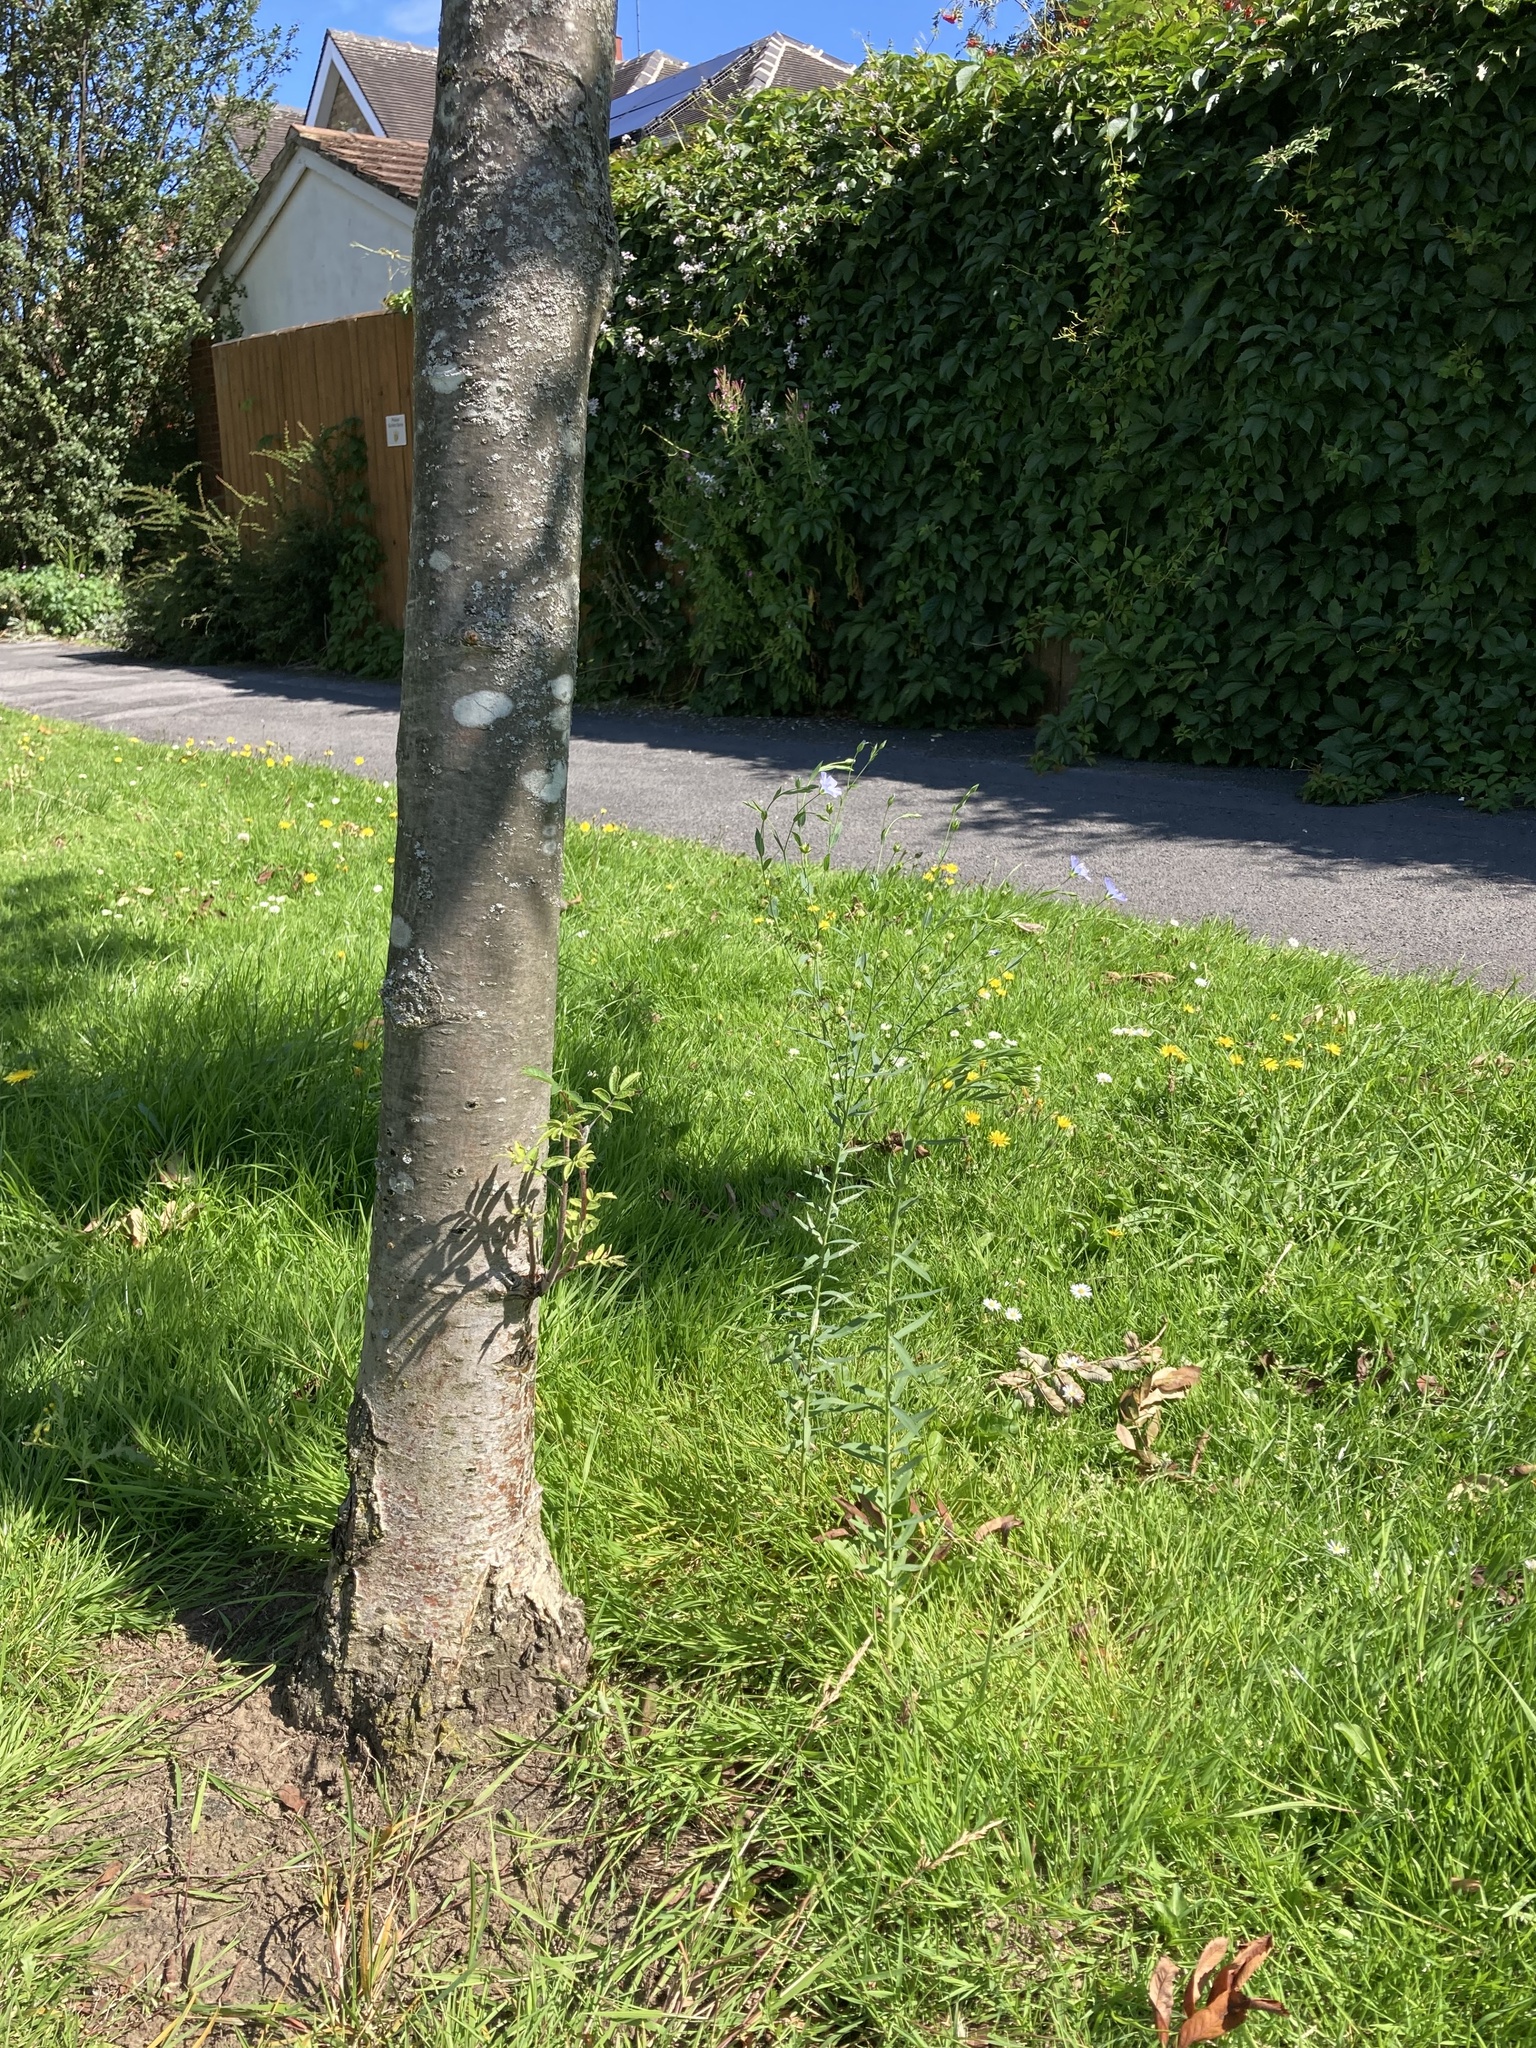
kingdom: Plantae
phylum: Tracheophyta
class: Magnoliopsida
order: Malpighiales
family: Linaceae
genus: Linum
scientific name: Linum usitatissimum
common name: Flax
